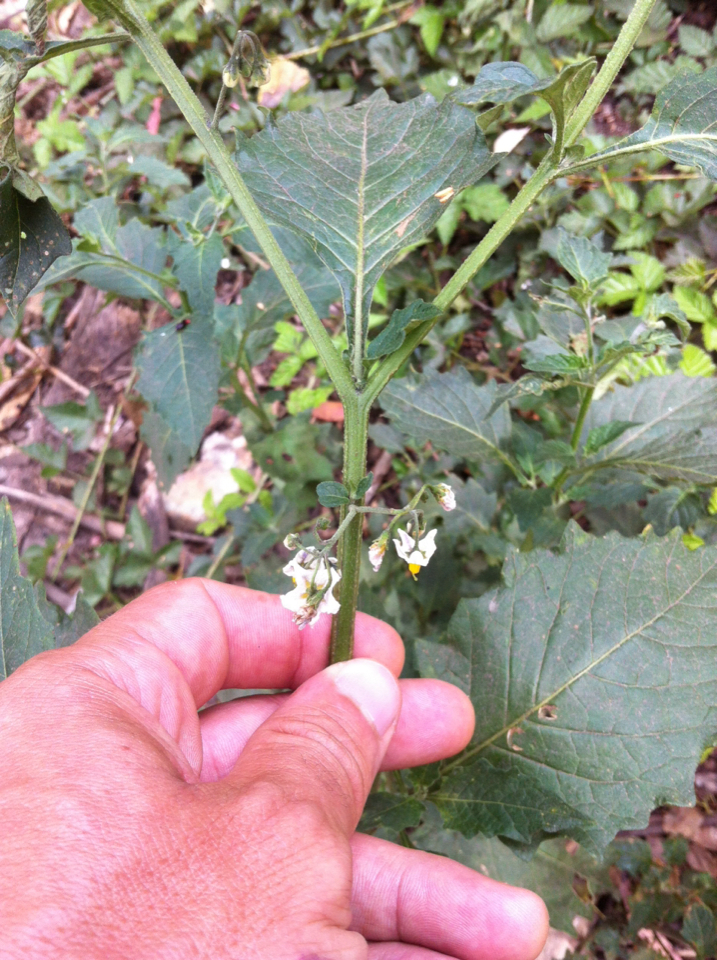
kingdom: Plantae
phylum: Tracheophyta
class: Magnoliopsida
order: Solanales
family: Solanaceae
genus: Solanum
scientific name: Solanum furcatum
